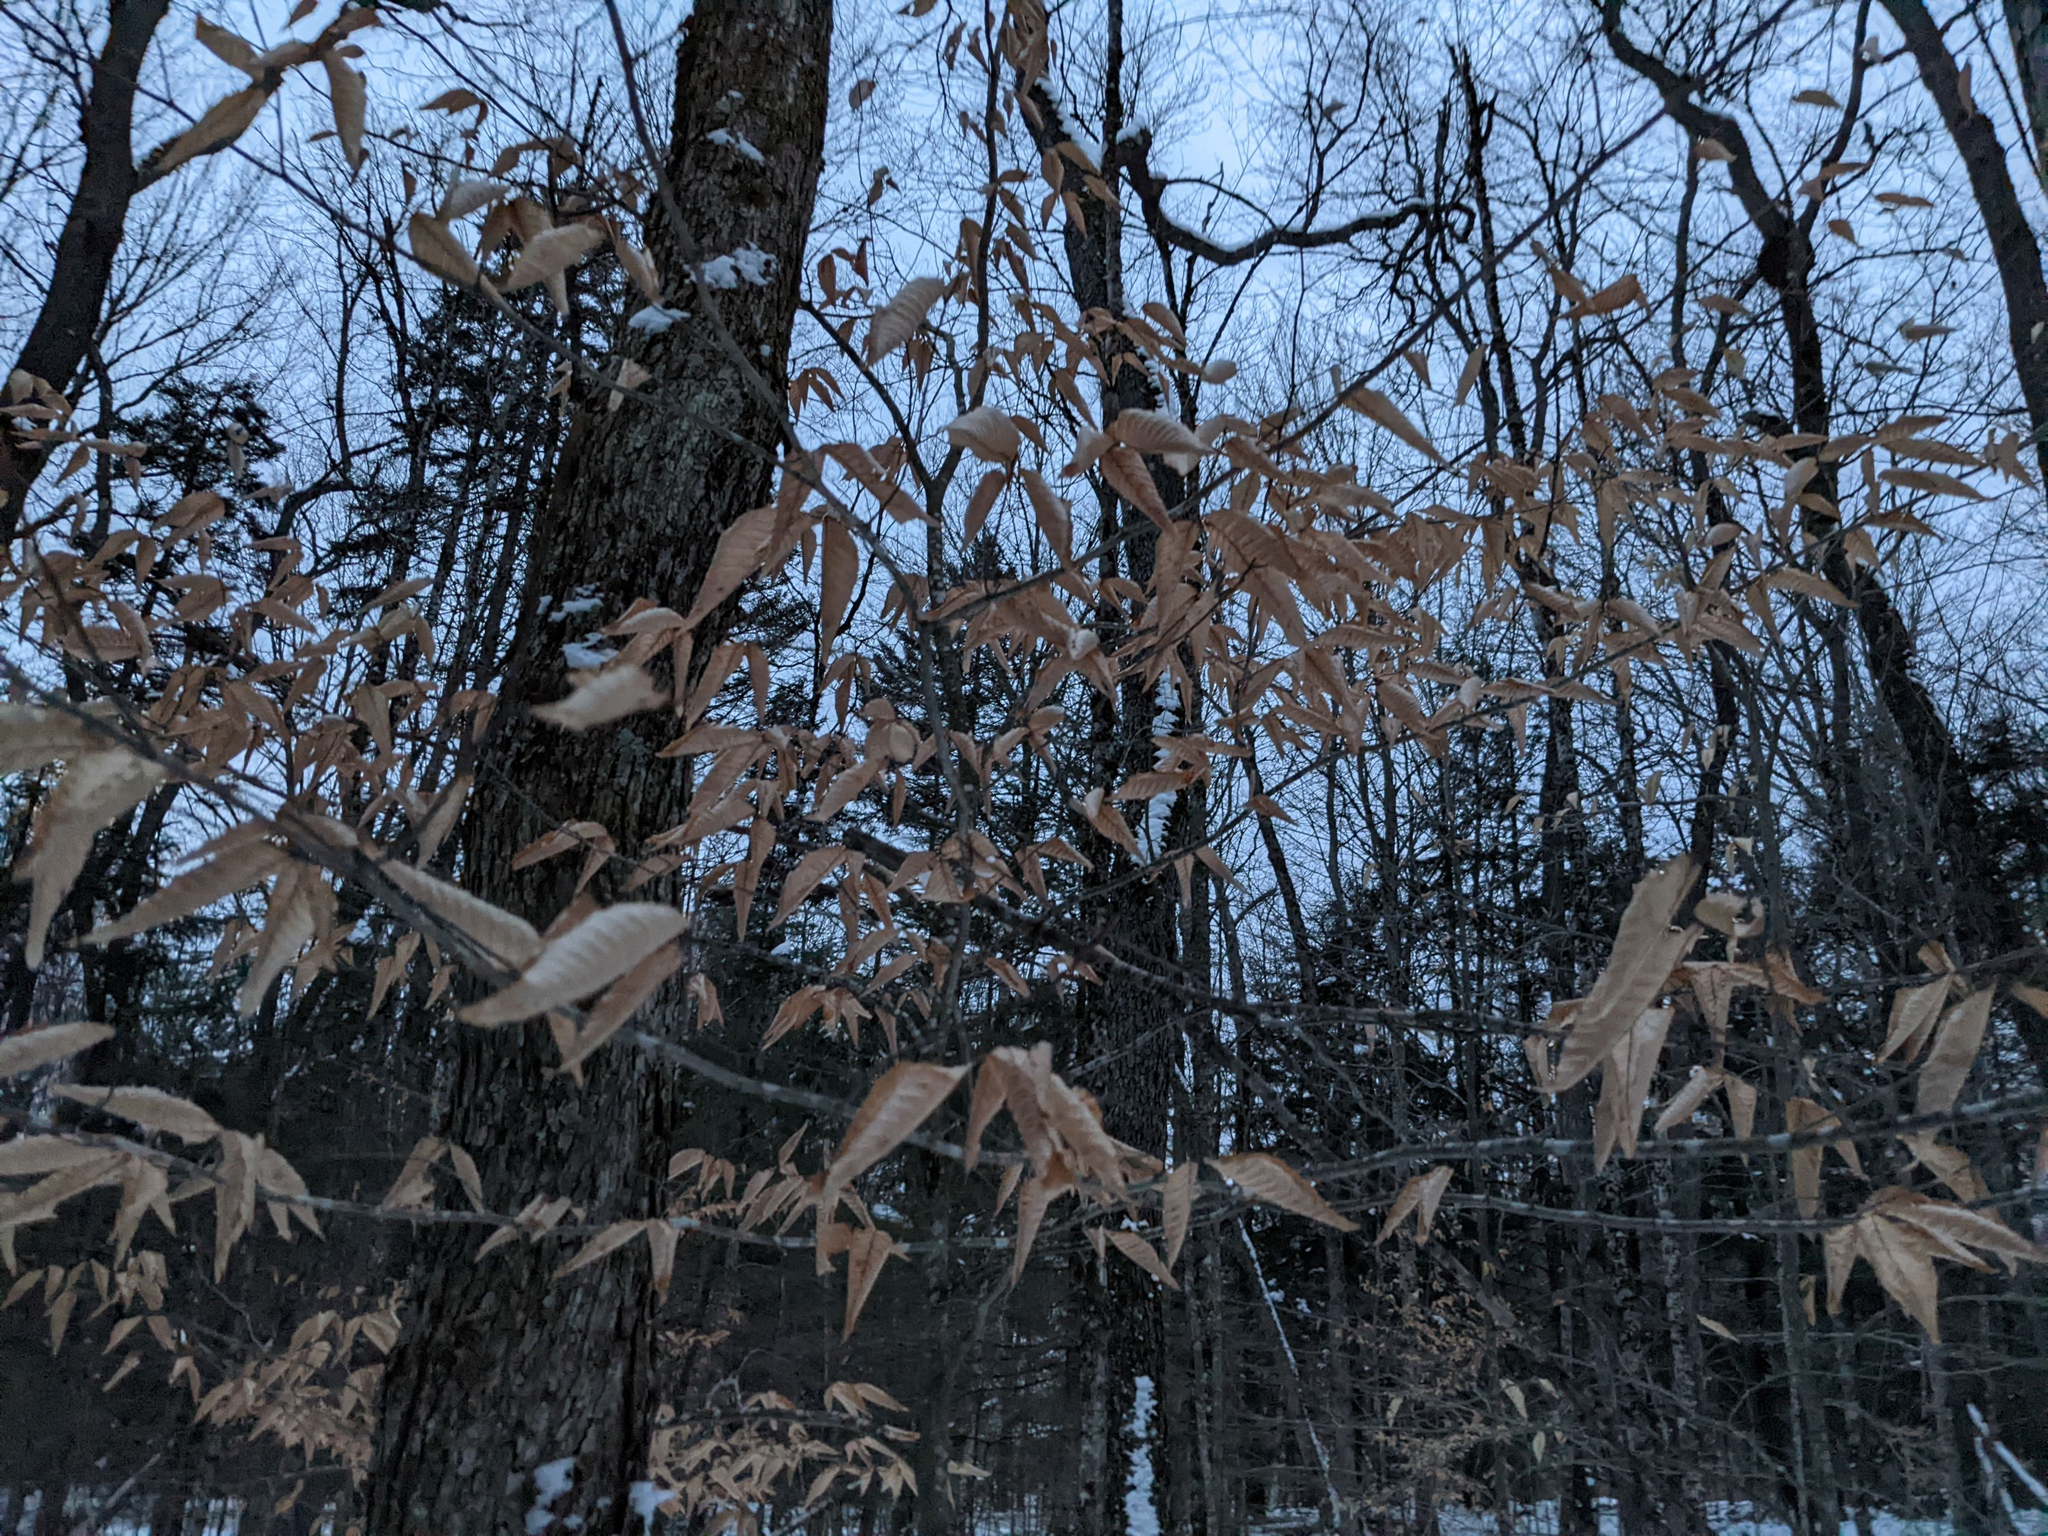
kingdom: Plantae
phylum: Tracheophyta
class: Magnoliopsida
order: Fagales
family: Fagaceae
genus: Fagus
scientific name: Fagus grandifolia
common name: American beech
